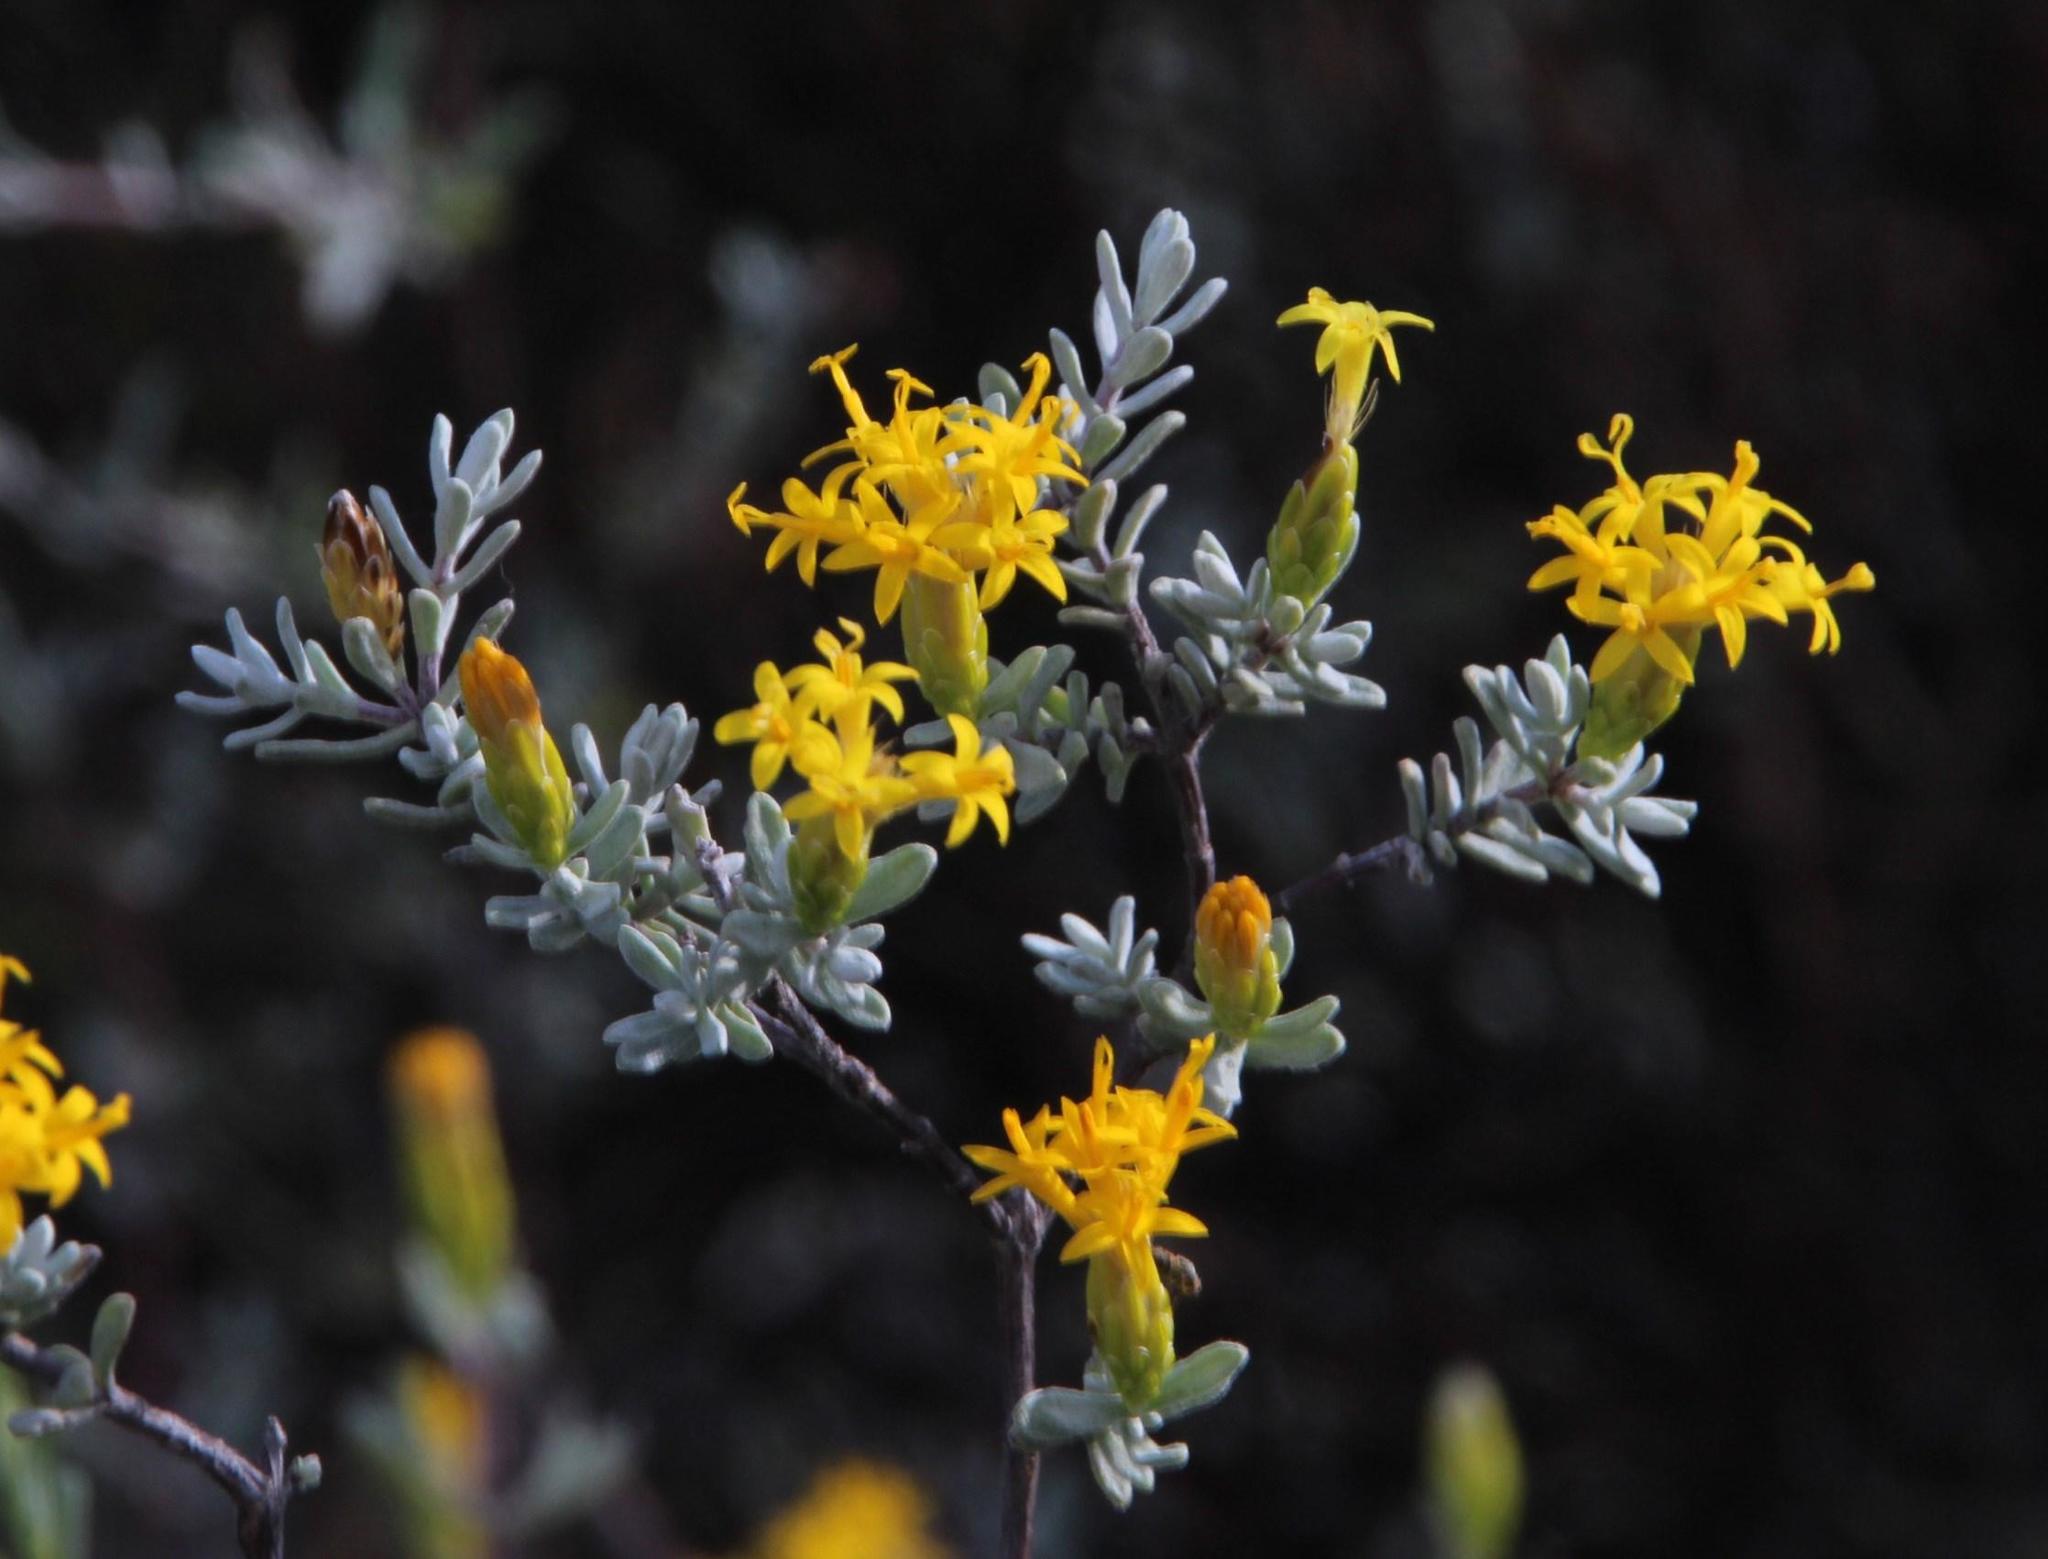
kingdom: Plantae
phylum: Tracheophyta
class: Magnoliopsida
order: Asterales
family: Asteraceae
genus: Pteronia
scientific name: Pteronia incana
